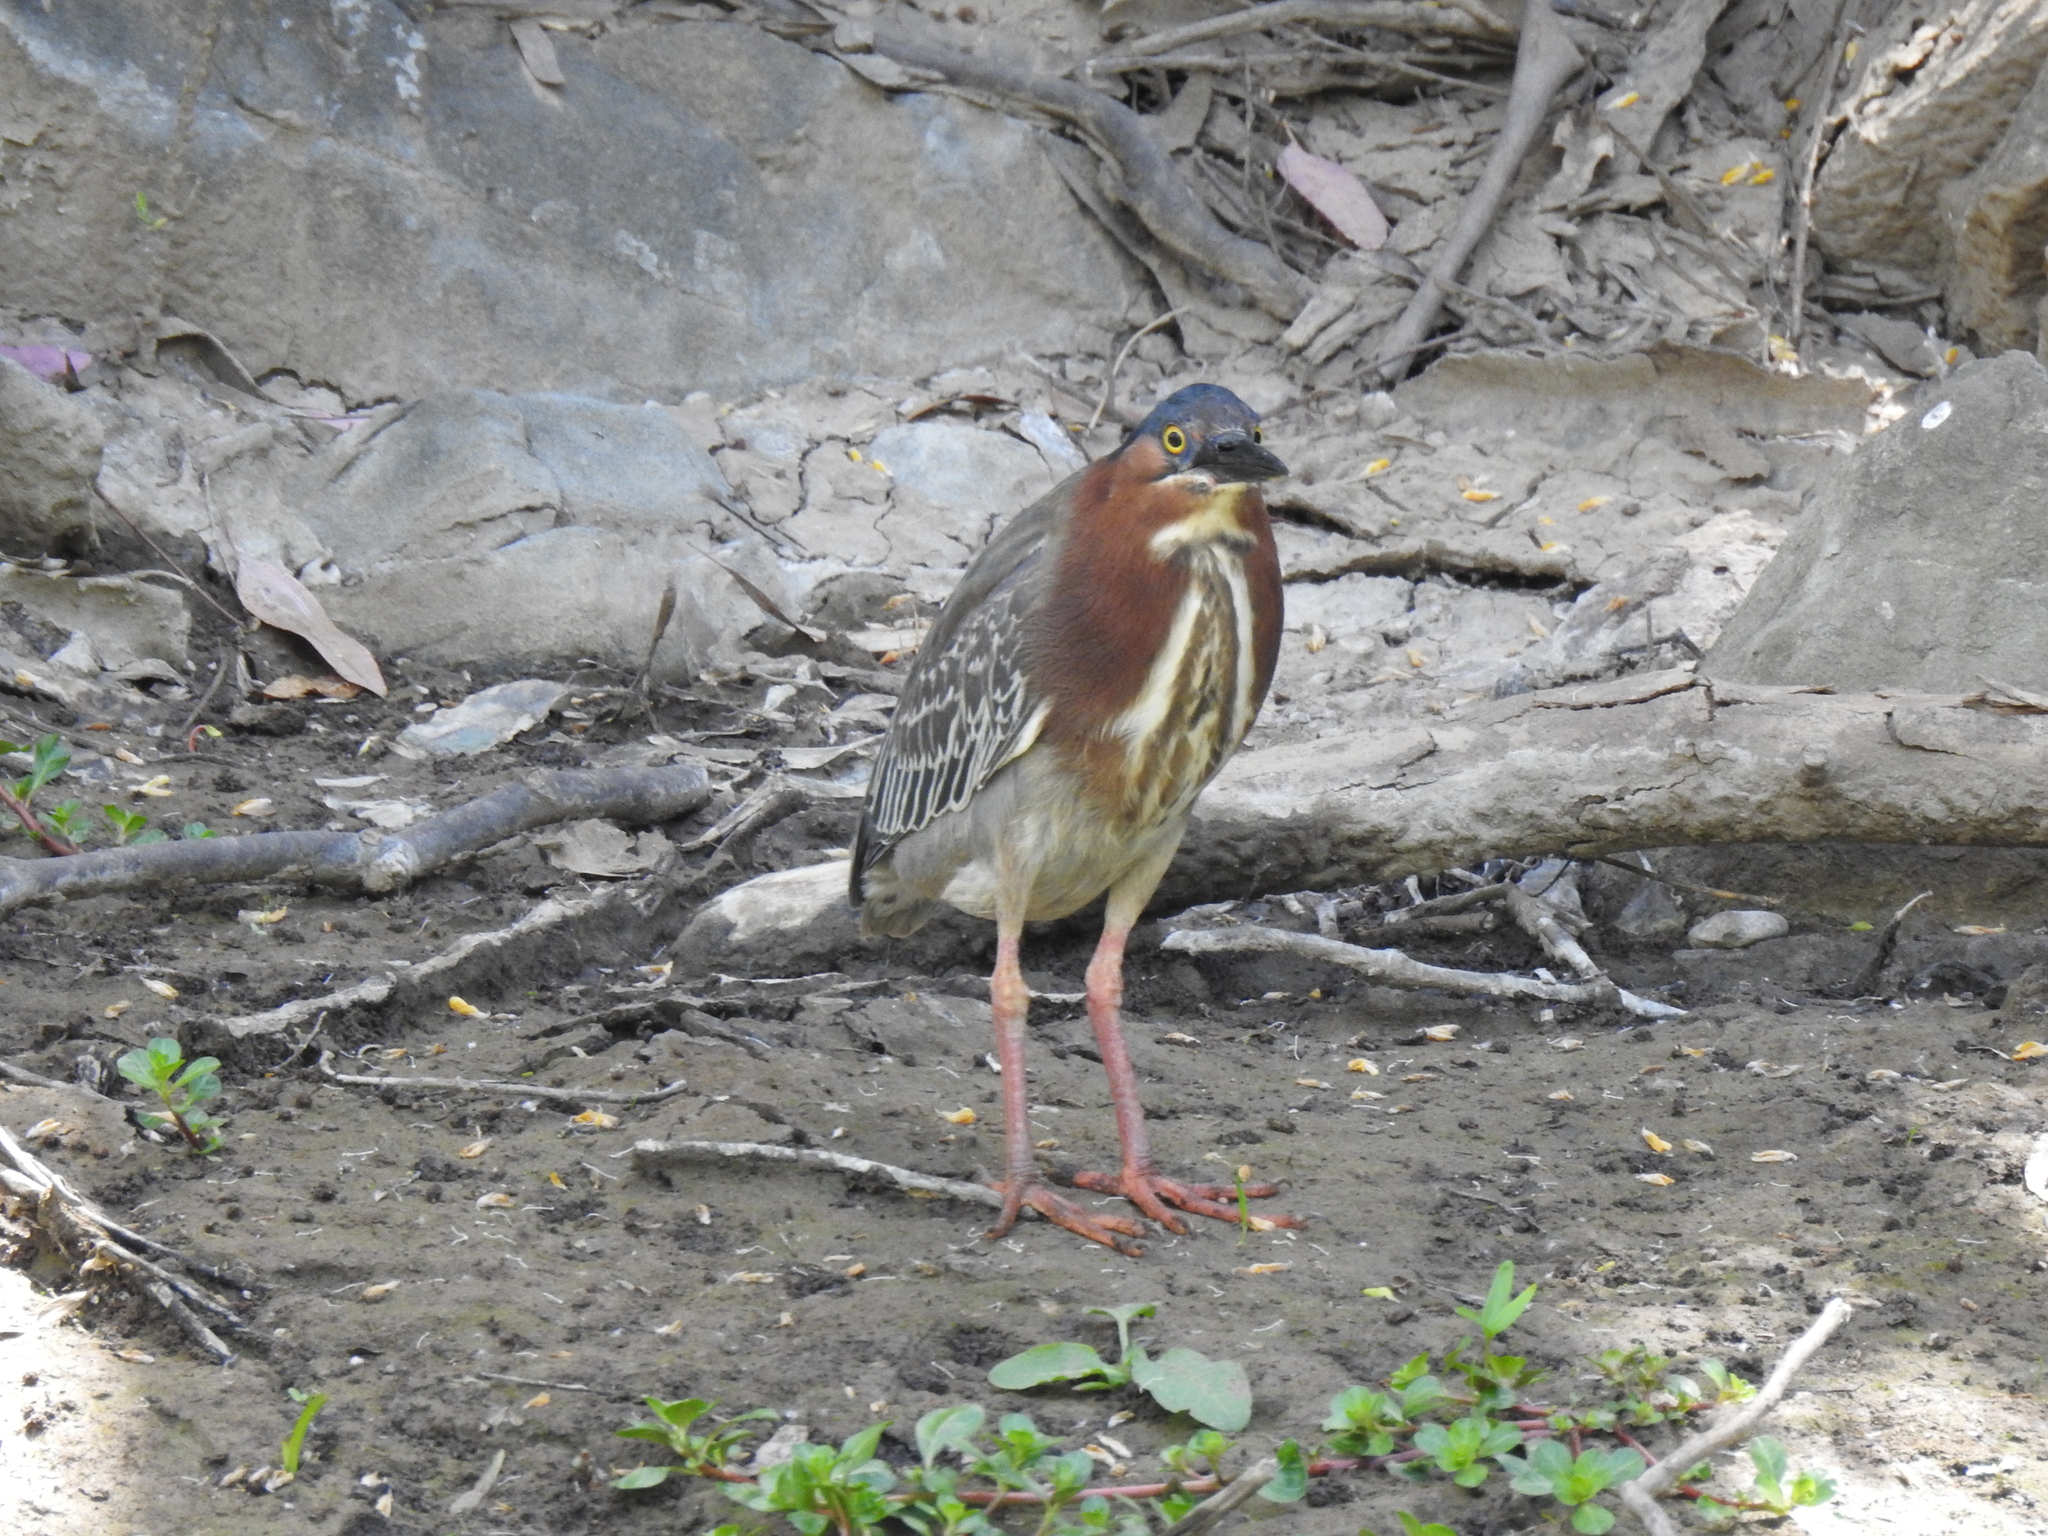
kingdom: Animalia
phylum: Chordata
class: Aves
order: Pelecaniformes
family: Ardeidae
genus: Butorides
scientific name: Butorides virescens
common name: Green heron
